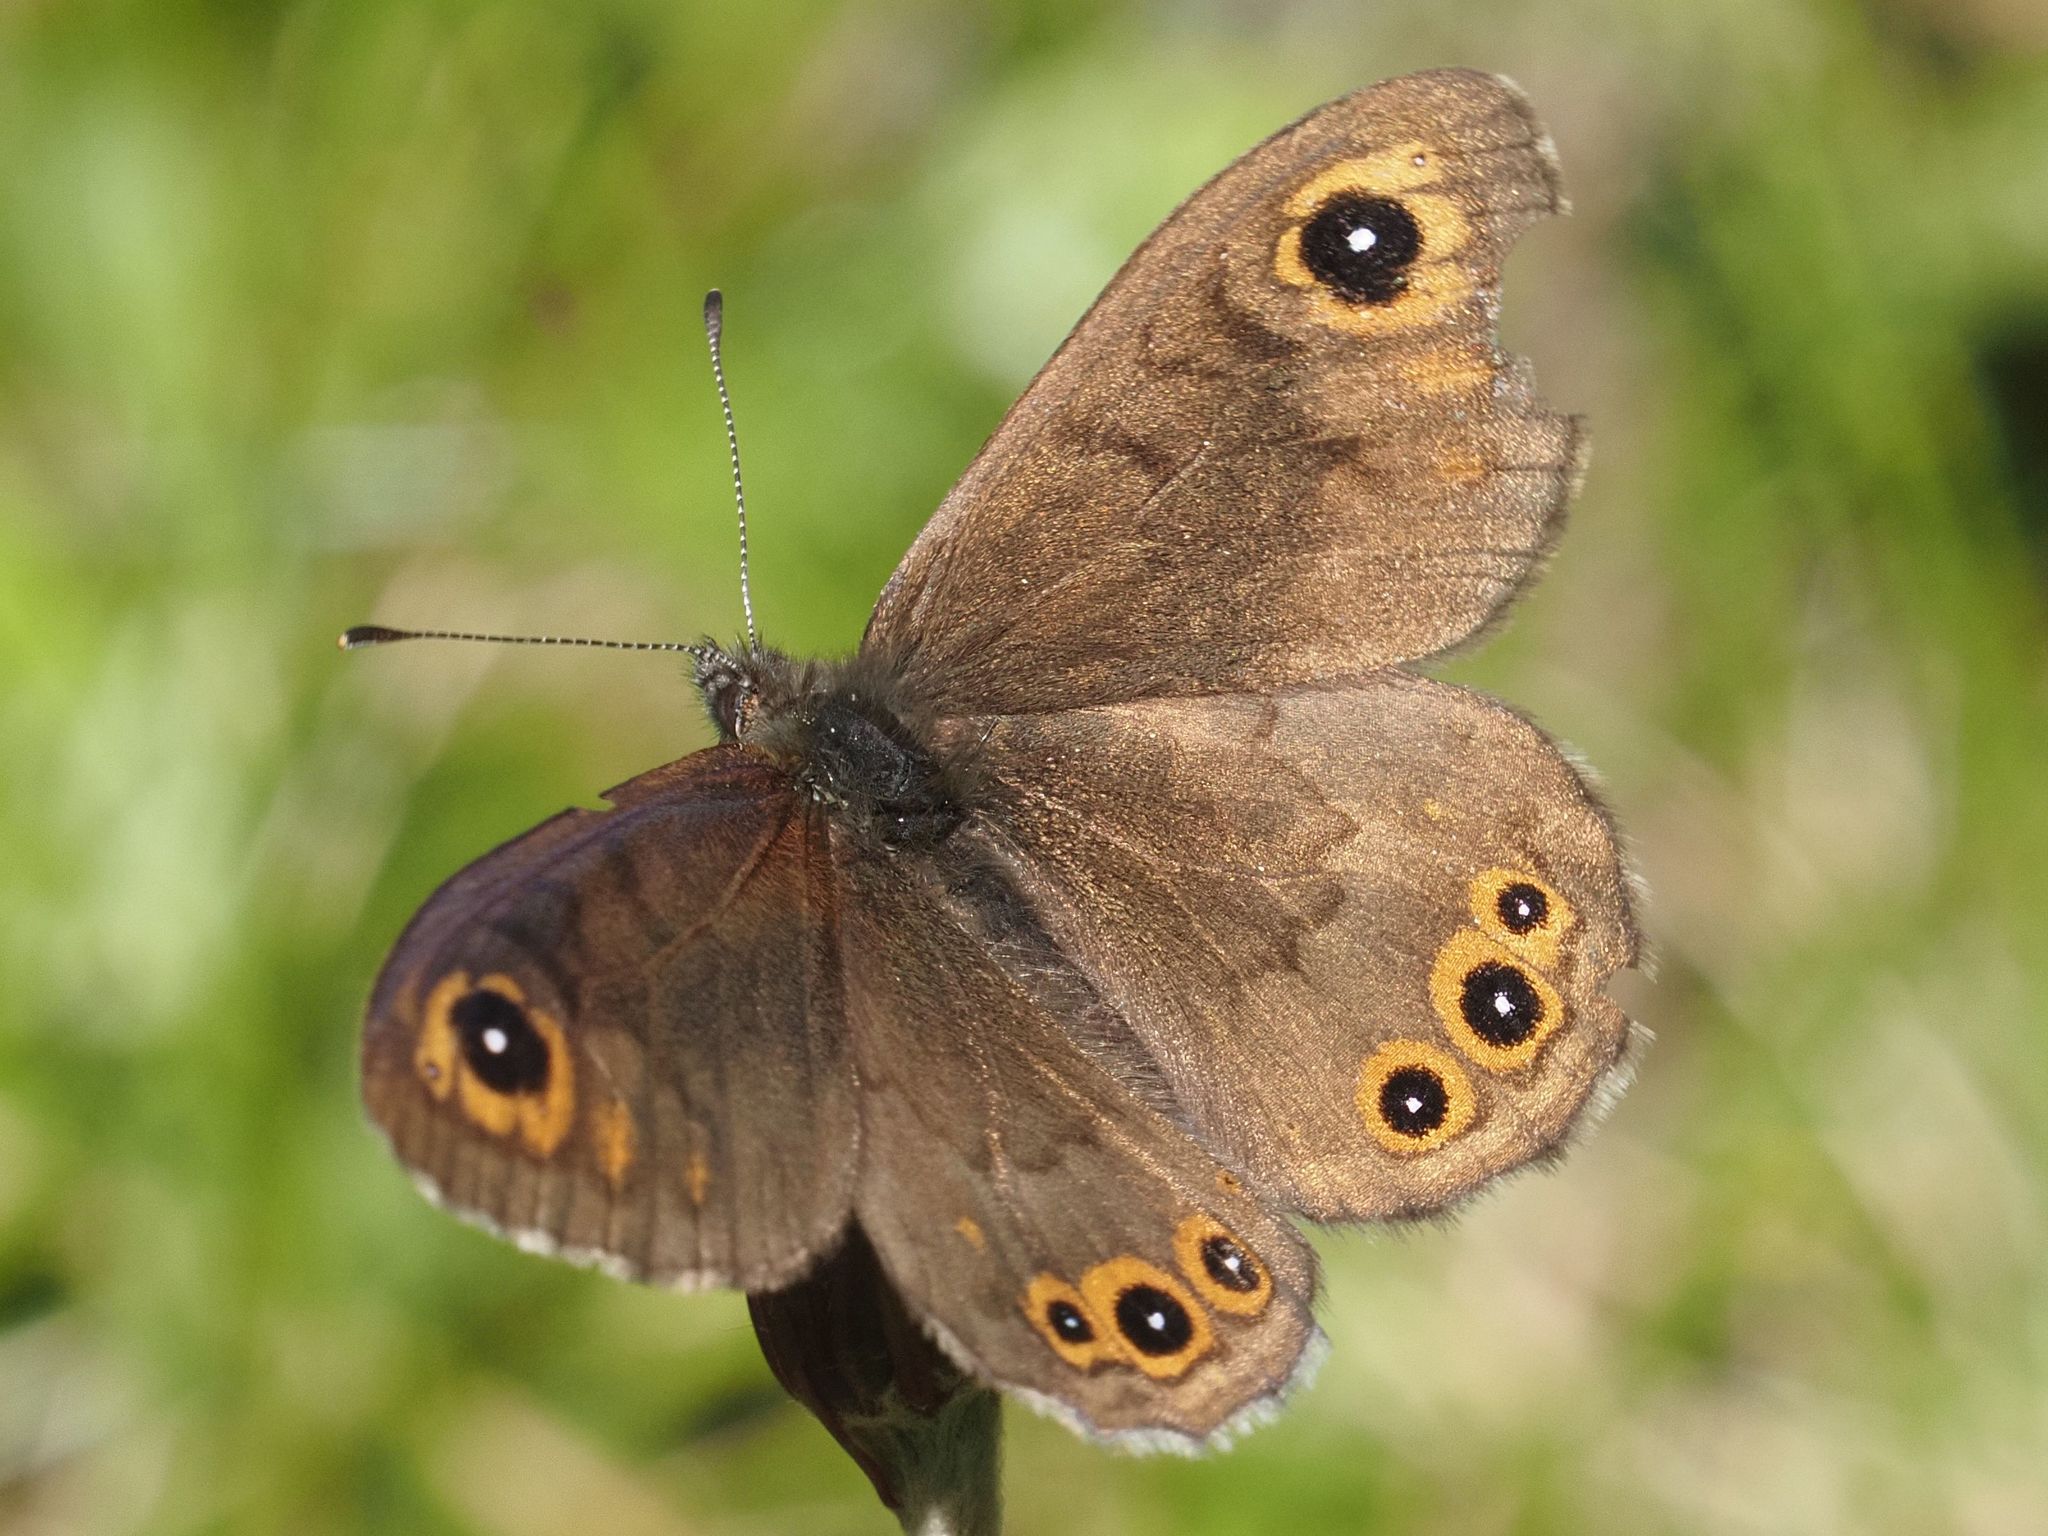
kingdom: Animalia
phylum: Arthropoda
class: Insecta
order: Lepidoptera
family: Nymphalidae
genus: Pararge
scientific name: Pararge petropolitana
